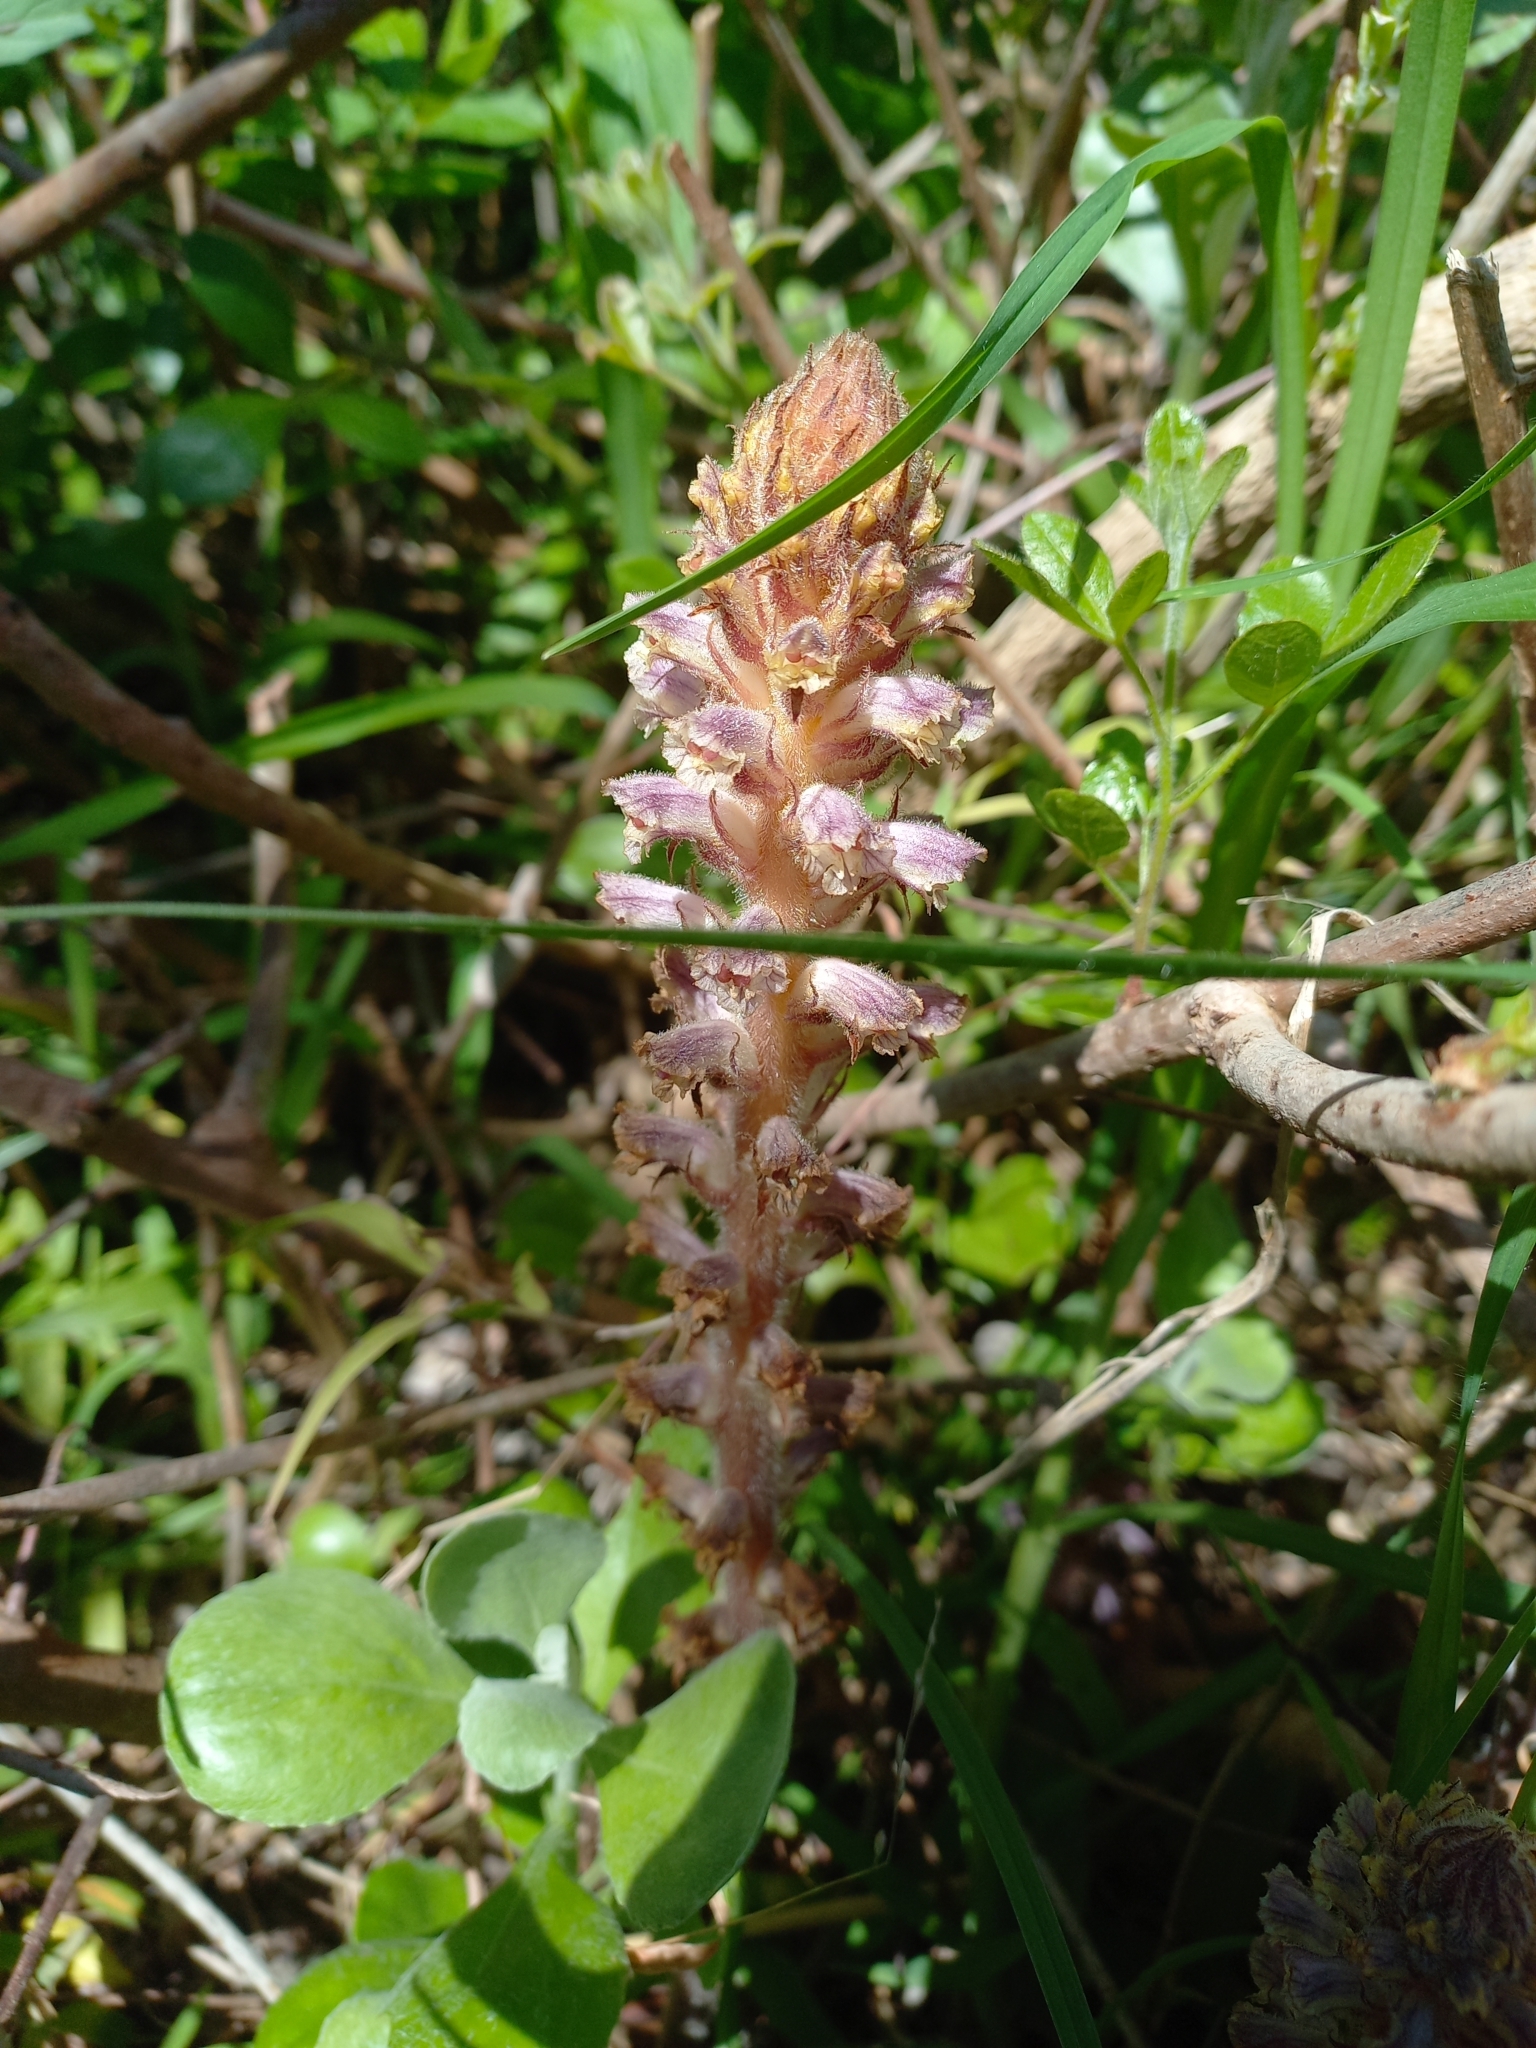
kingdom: Plantae
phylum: Tracheophyta
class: Magnoliopsida
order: Lamiales
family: Orobanchaceae
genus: Orobanche
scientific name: Orobanche minor
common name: Common broomrape
